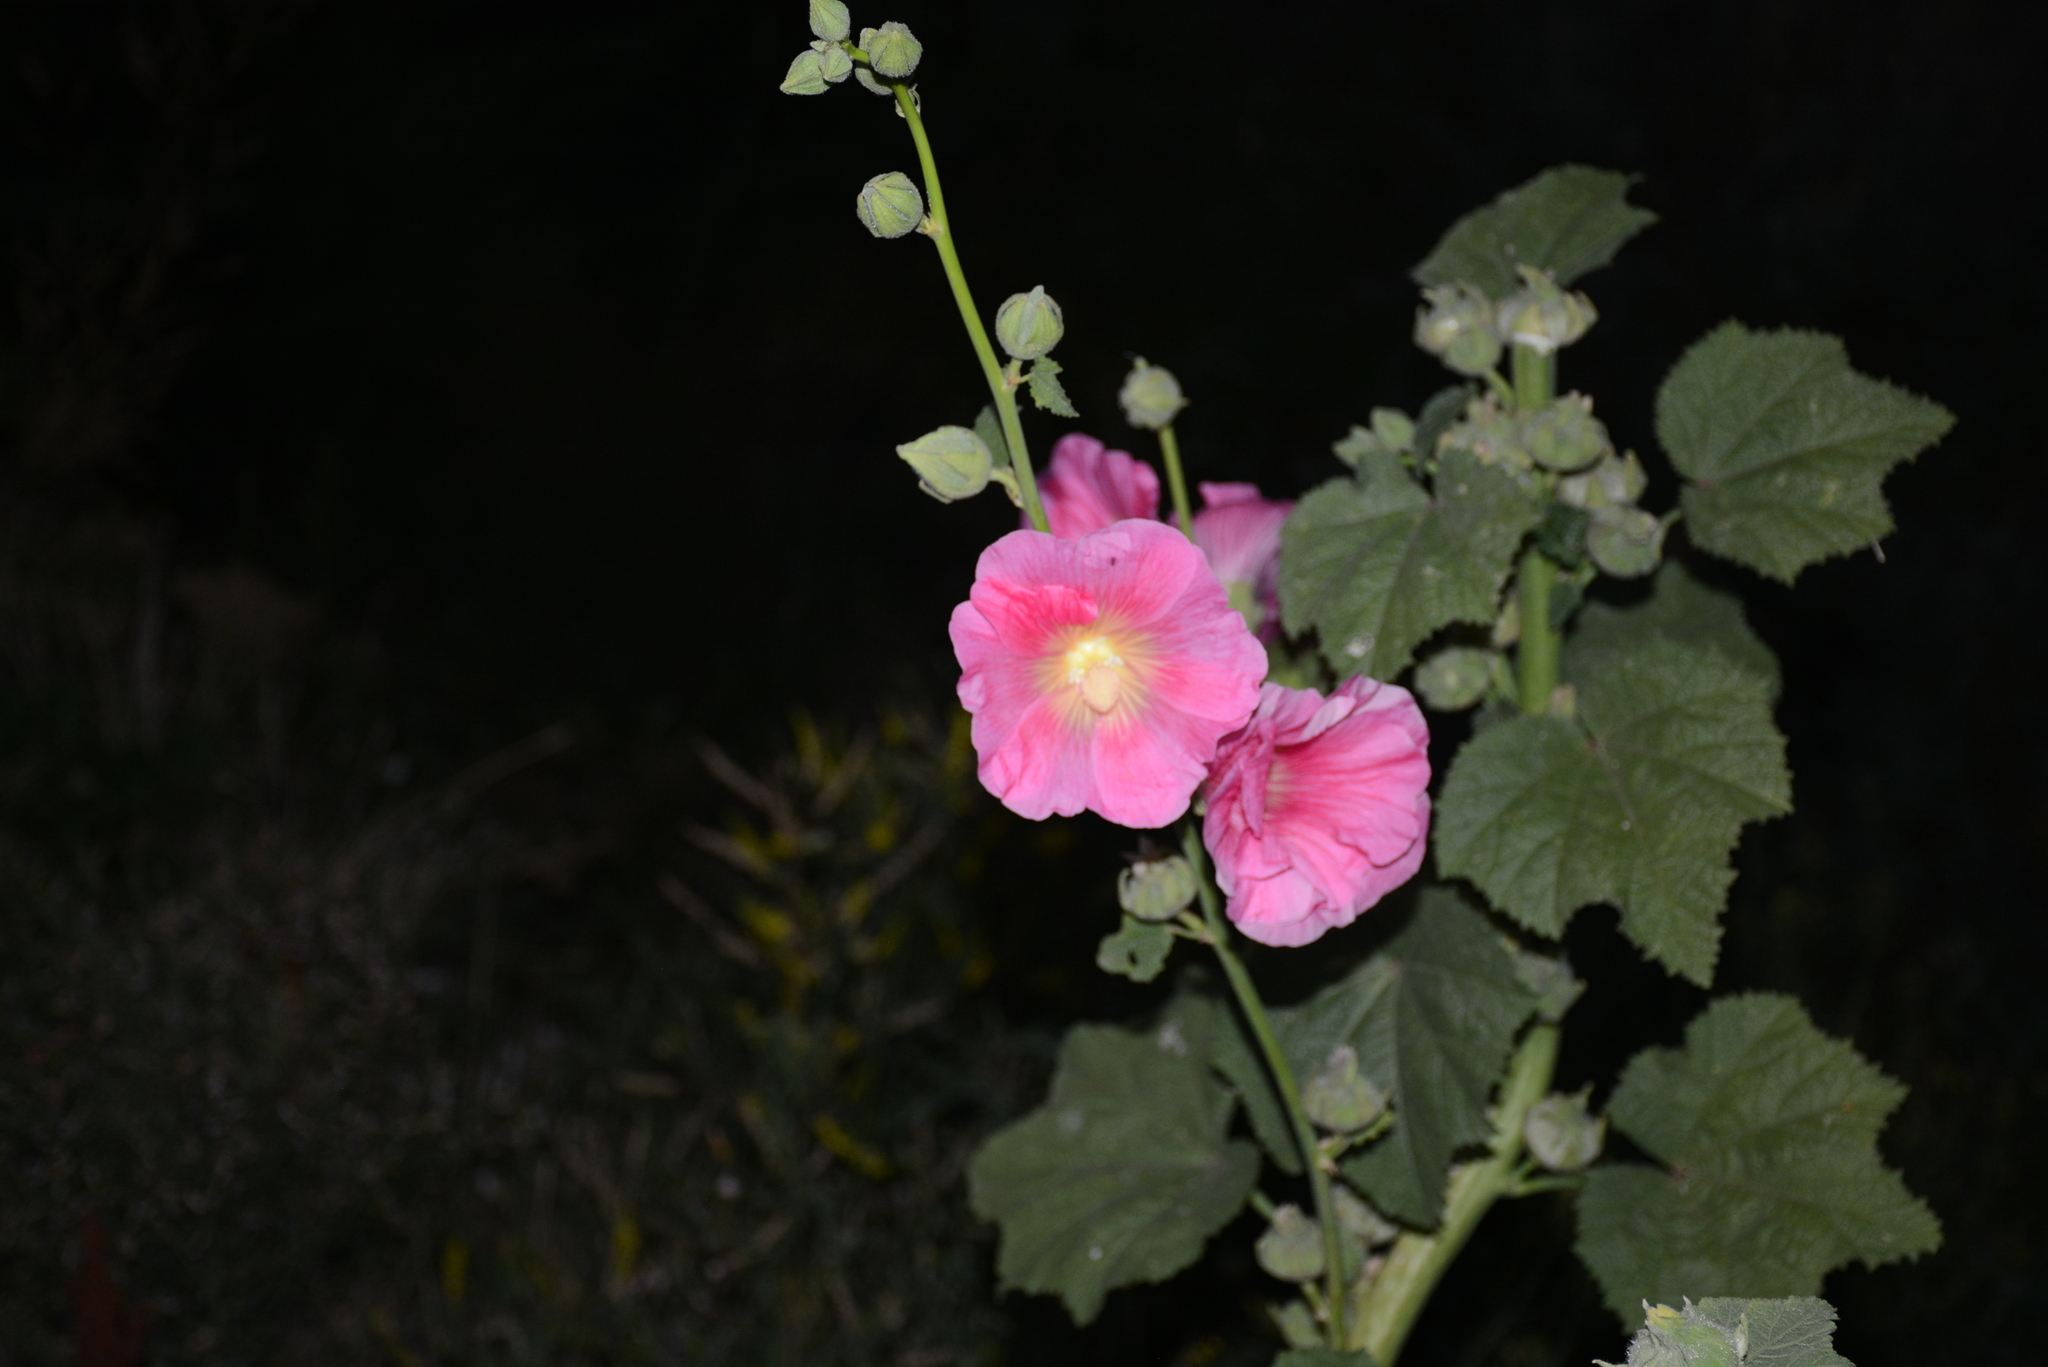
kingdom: Plantae
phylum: Tracheophyta
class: Magnoliopsida
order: Malvales
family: Malvaceae
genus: Alcea
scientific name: Alcea rosea
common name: Hollyhock
